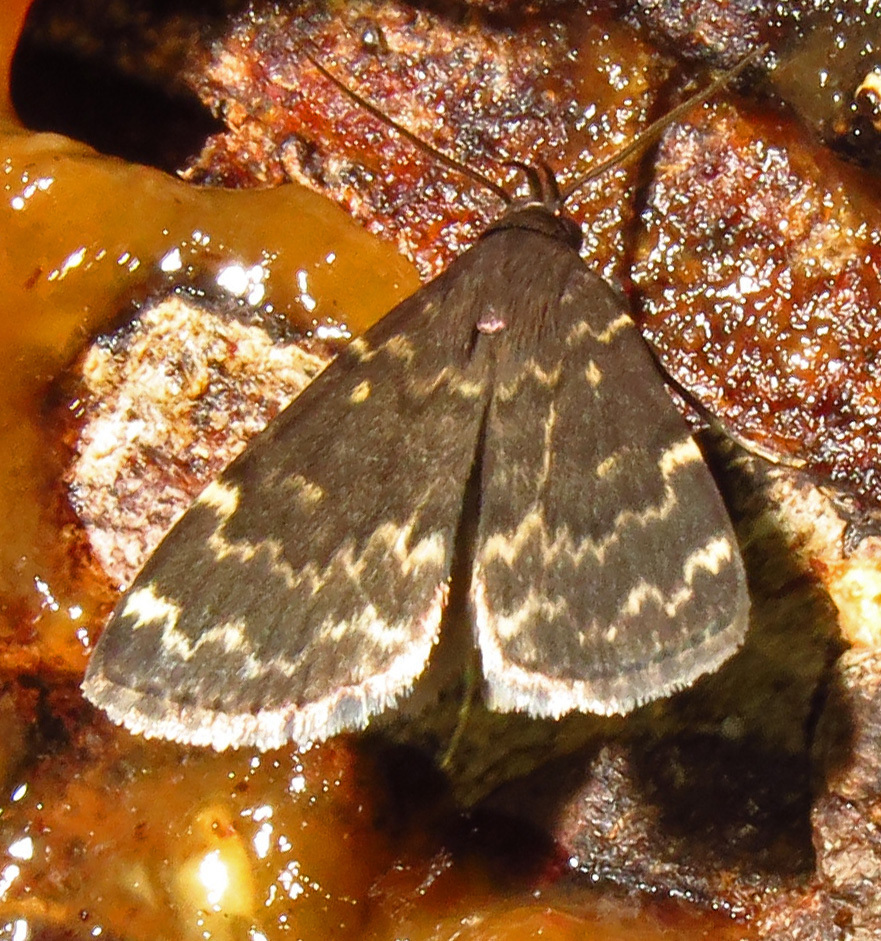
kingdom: Animalia
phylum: Arthropoda
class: Insecta
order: Lepidoptera
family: Erebidae
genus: Idia
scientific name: Idia lubricalis
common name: Twin-striped tabby
